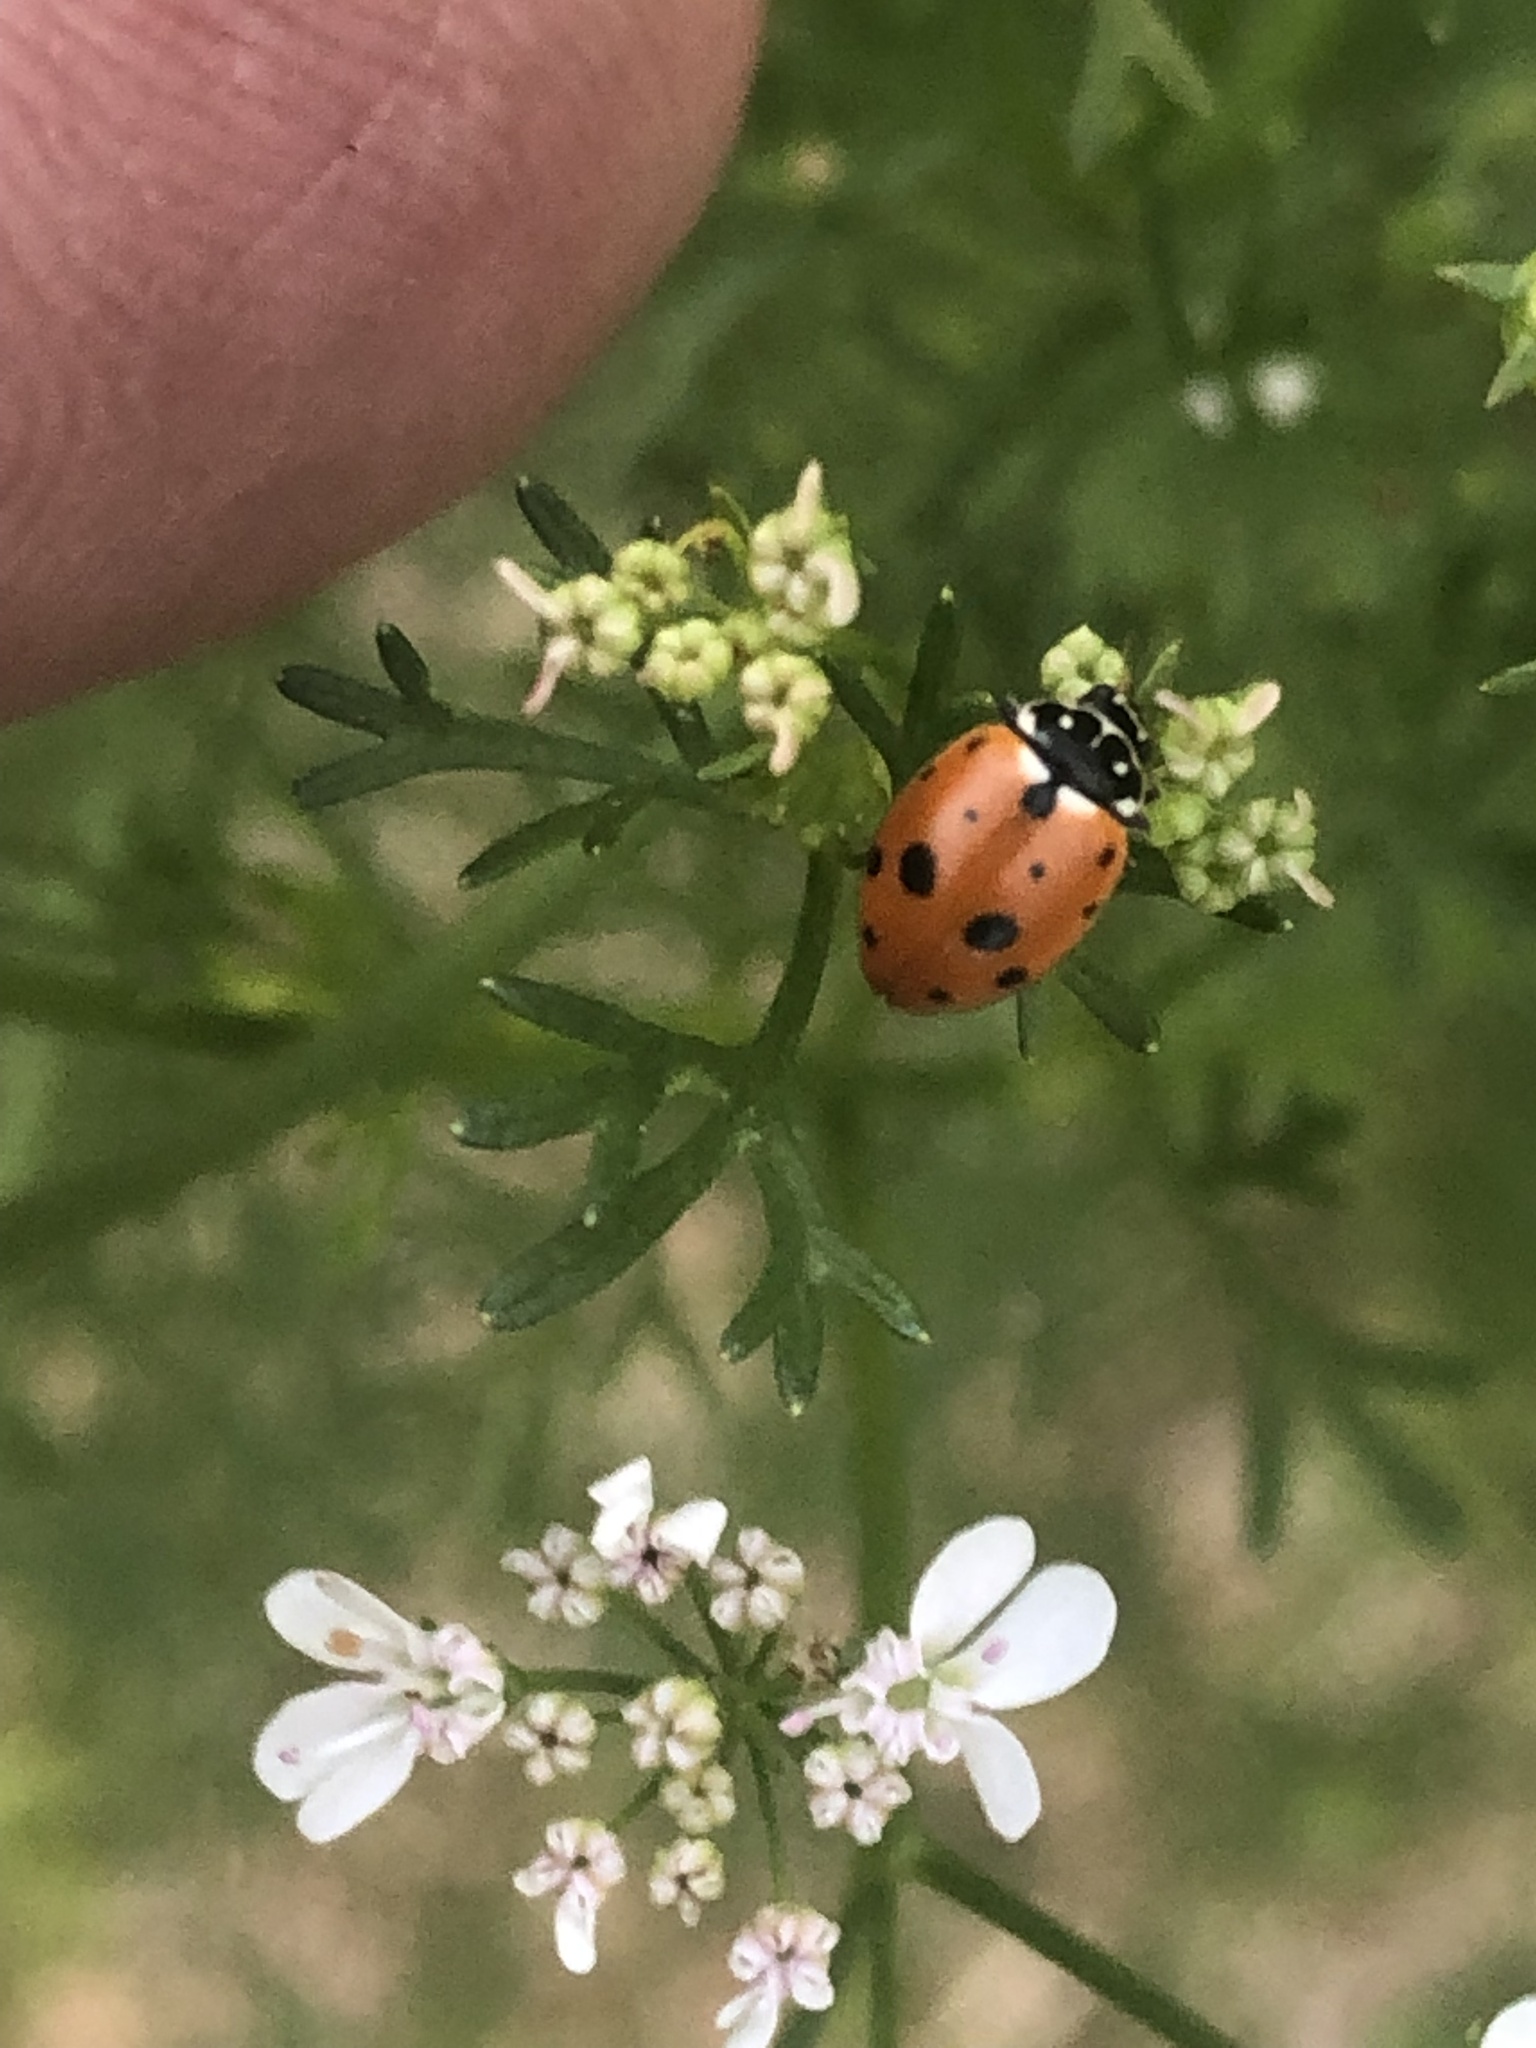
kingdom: Animalia
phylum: Arthropoda
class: Insecta
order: Coleoptera
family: Coccinellidae
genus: Hippodamia
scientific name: Hippodamia variegata
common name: Ladybird beetle
